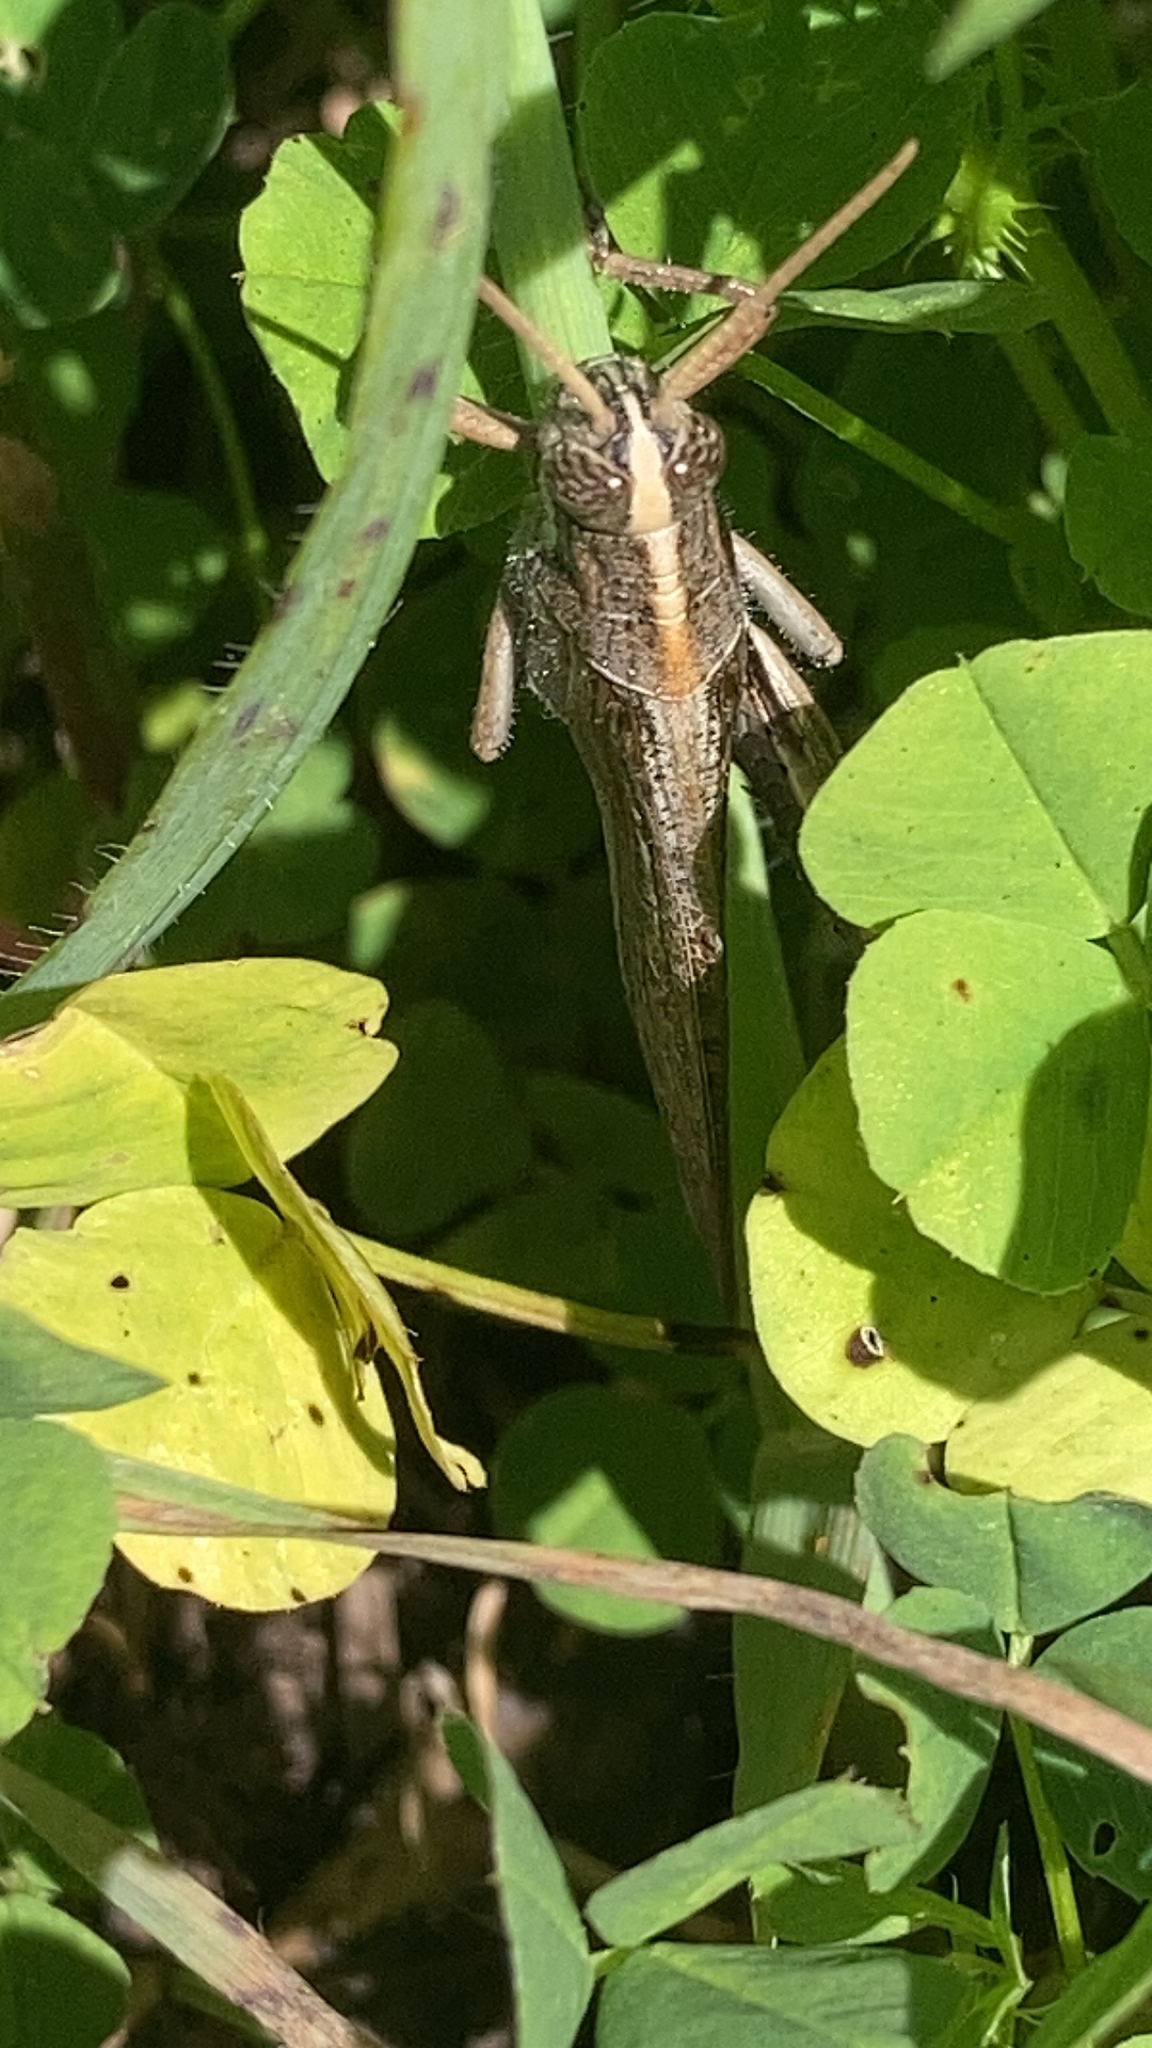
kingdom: Animalia
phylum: Arthropoda
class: Insecta
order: Orthoptera
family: Acrididae
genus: Schistocerca
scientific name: Schistocerca nitens
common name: Vagrant grasshopper
